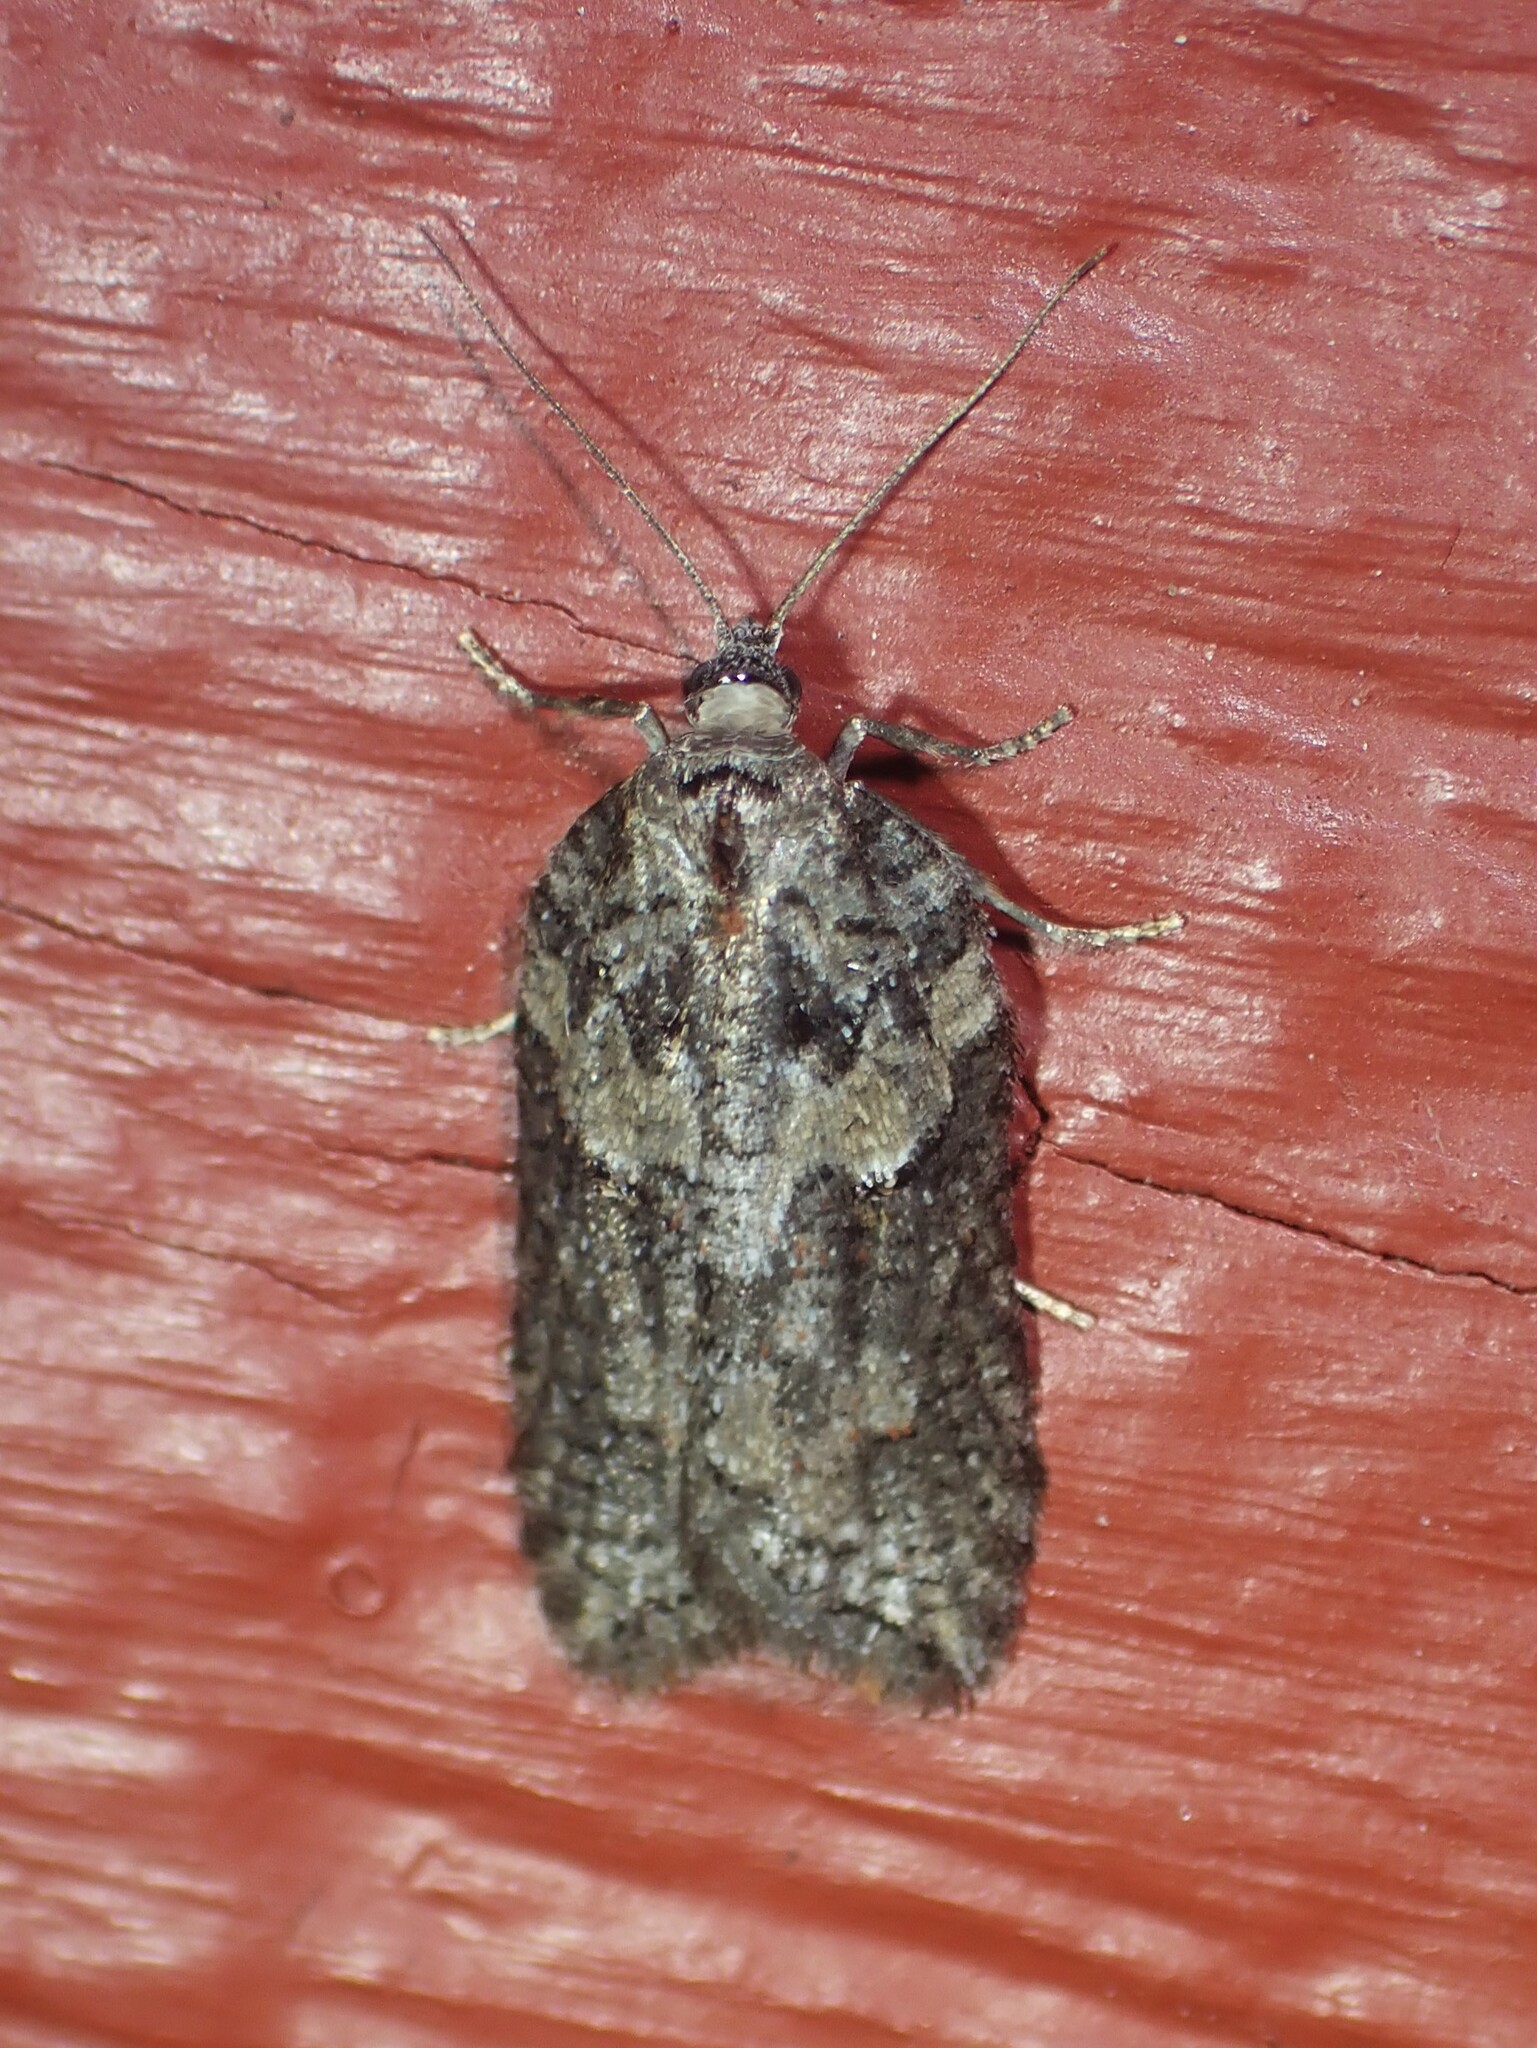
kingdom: Animalia
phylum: Arthropoda
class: Insecta
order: Lepidoptera
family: Tortricidae
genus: Acleris
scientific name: Acleris hastiana
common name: Sallow button
